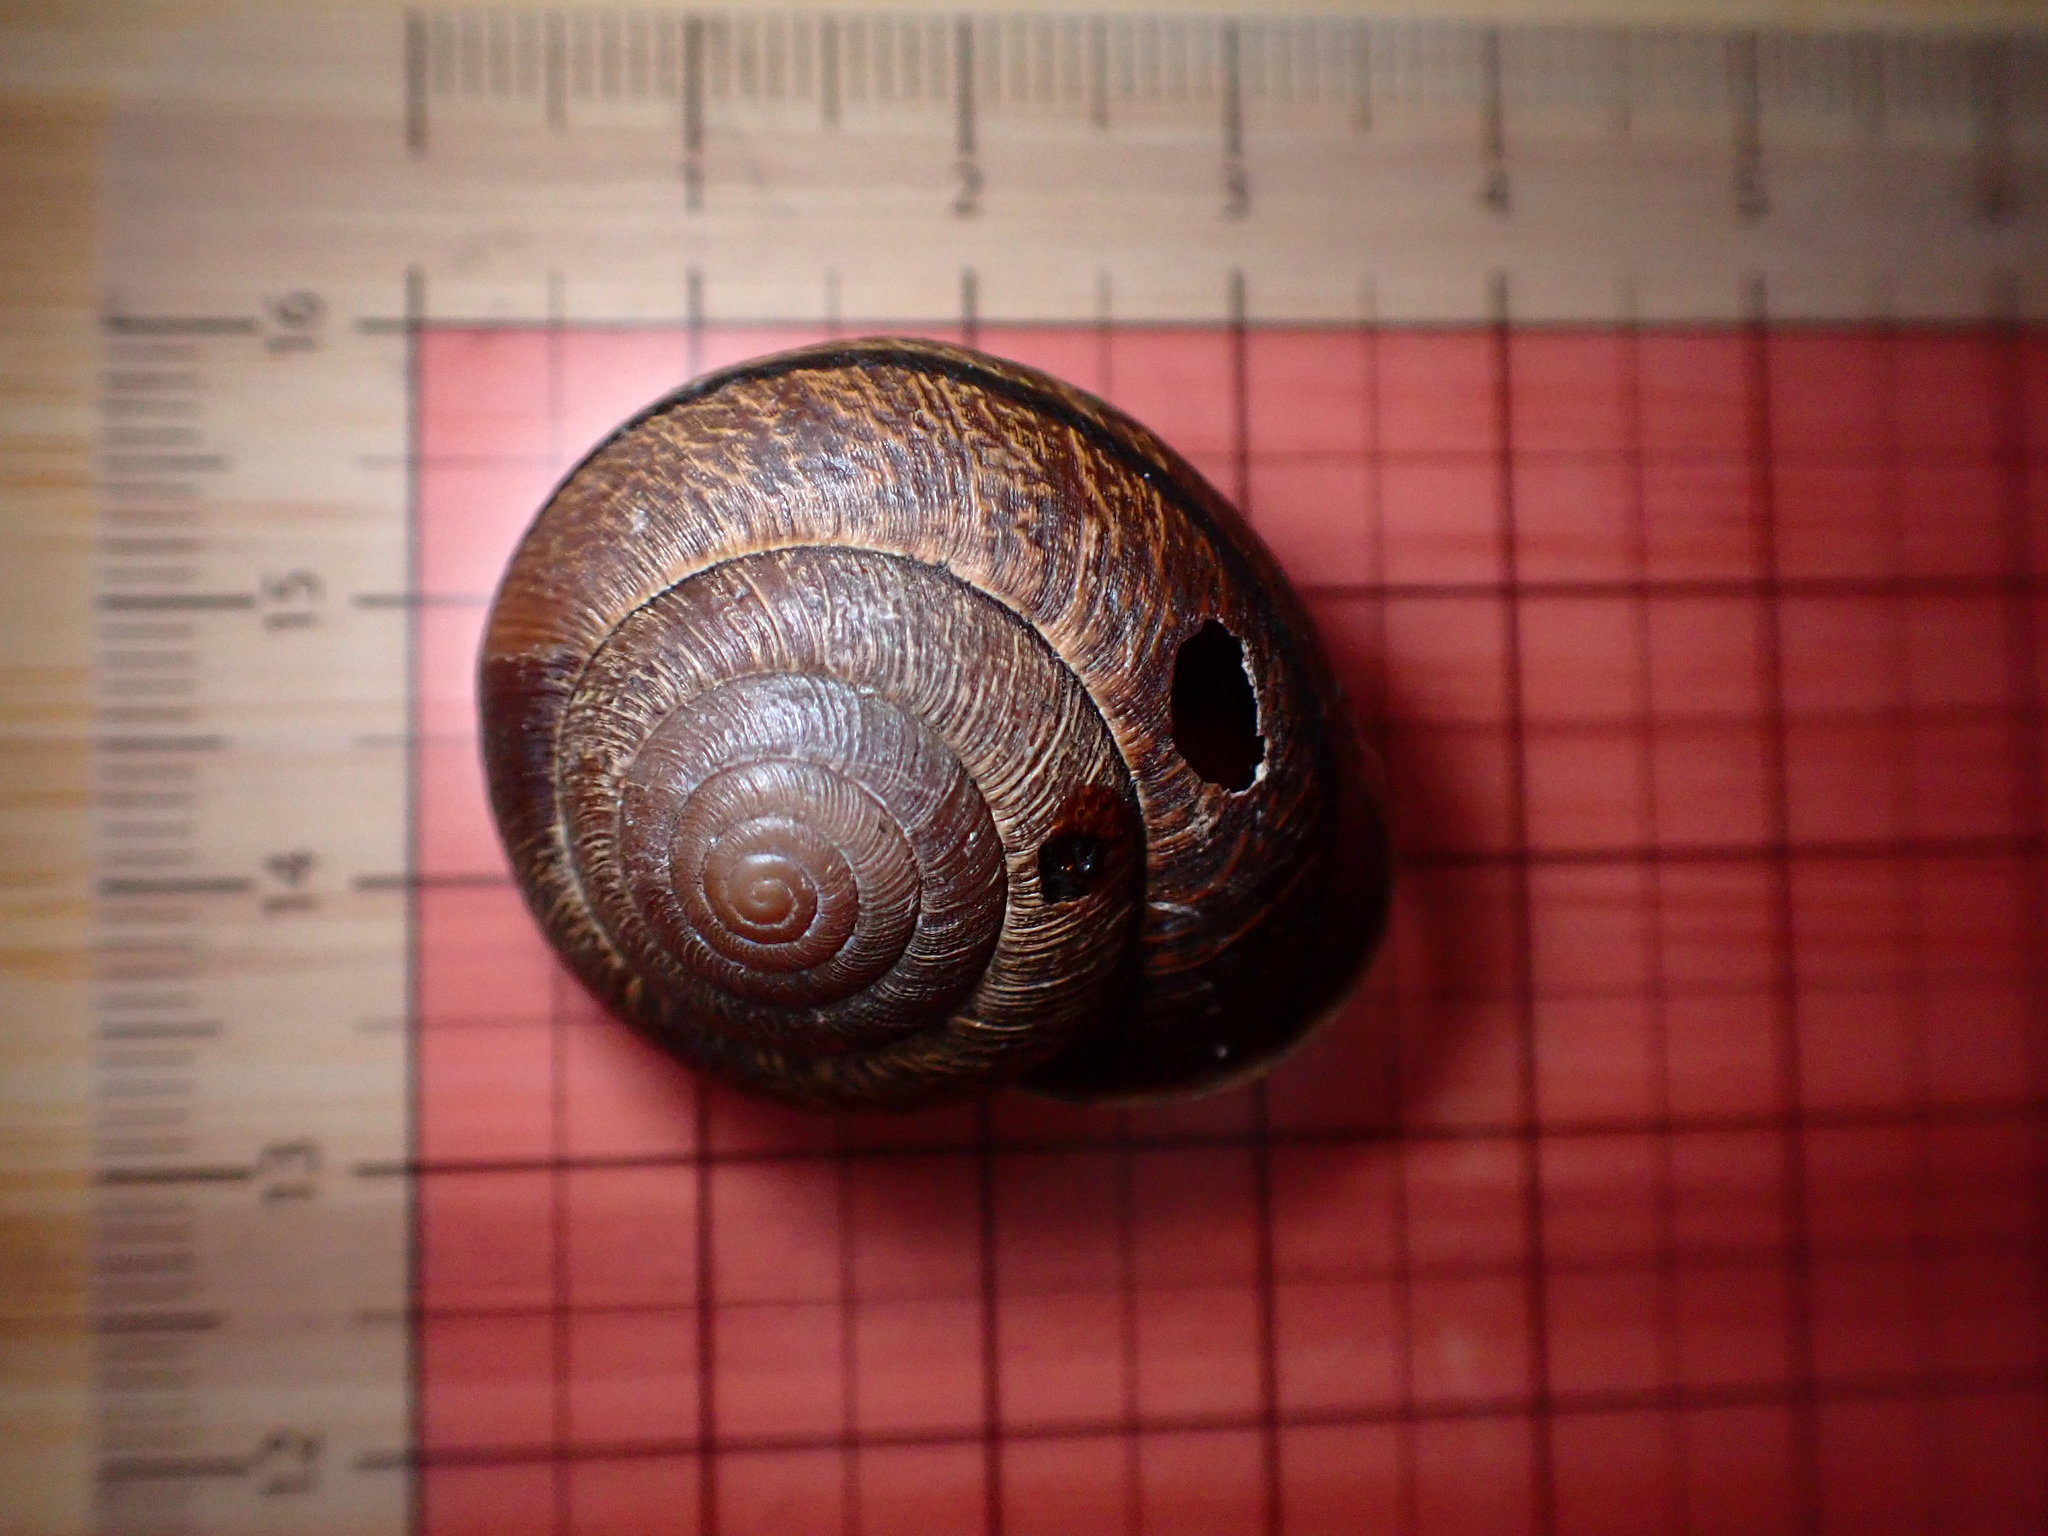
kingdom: Animalia
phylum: Mollusca
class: Gastropoda
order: Stylommatophora
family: Xanthonychidae
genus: Helminthoglypta
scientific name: Helminthoglypta arrosa
